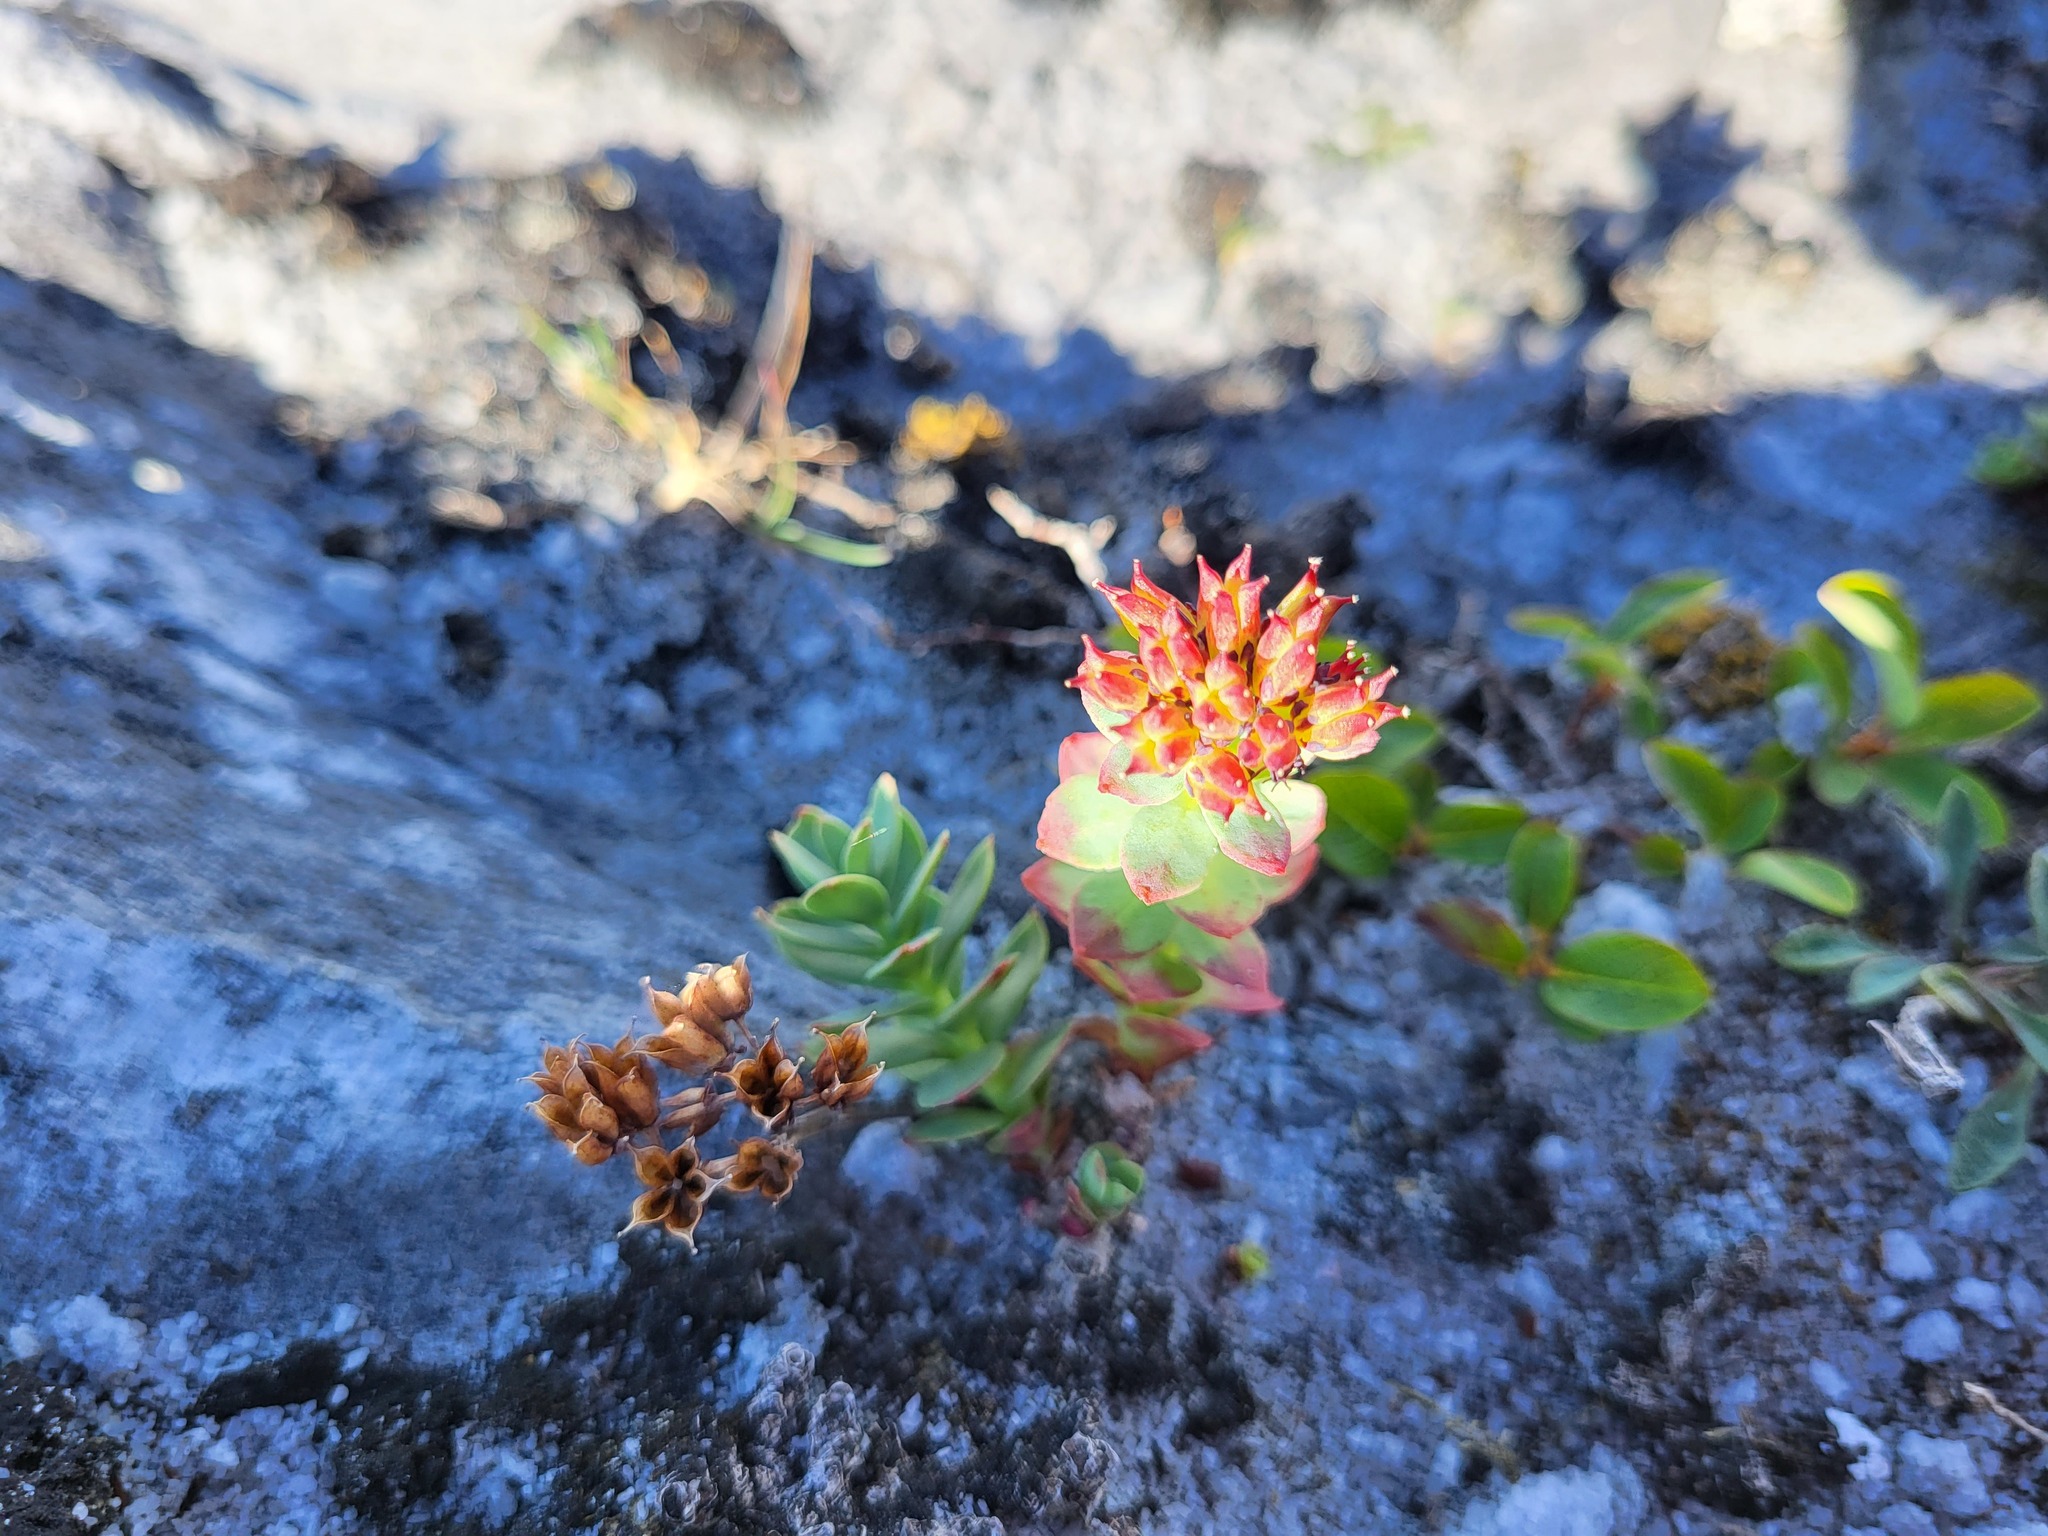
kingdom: Plantae
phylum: Tracheophyta
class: Magnoliopsida
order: Saxifragales
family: Crassulaceae
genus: Rhodiola
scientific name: Rhodiola integrifolia
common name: Western roseroot
